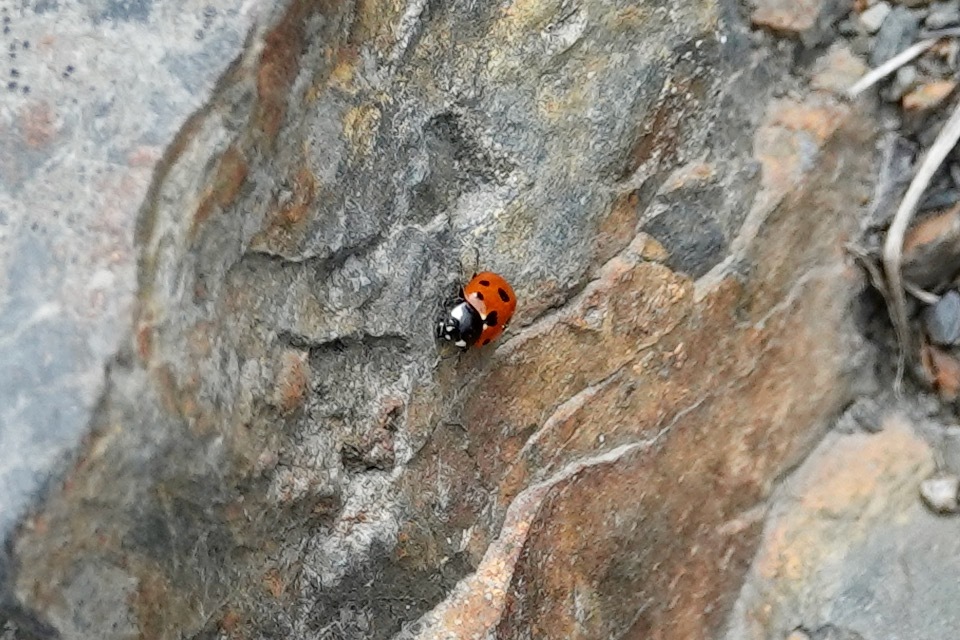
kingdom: Animalia
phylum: Arthropoda
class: Insecta
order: Coleoptera
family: Coccinellidae
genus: Coccinella
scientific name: Coccinella undecimpunctata
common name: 11-spot ladybird
